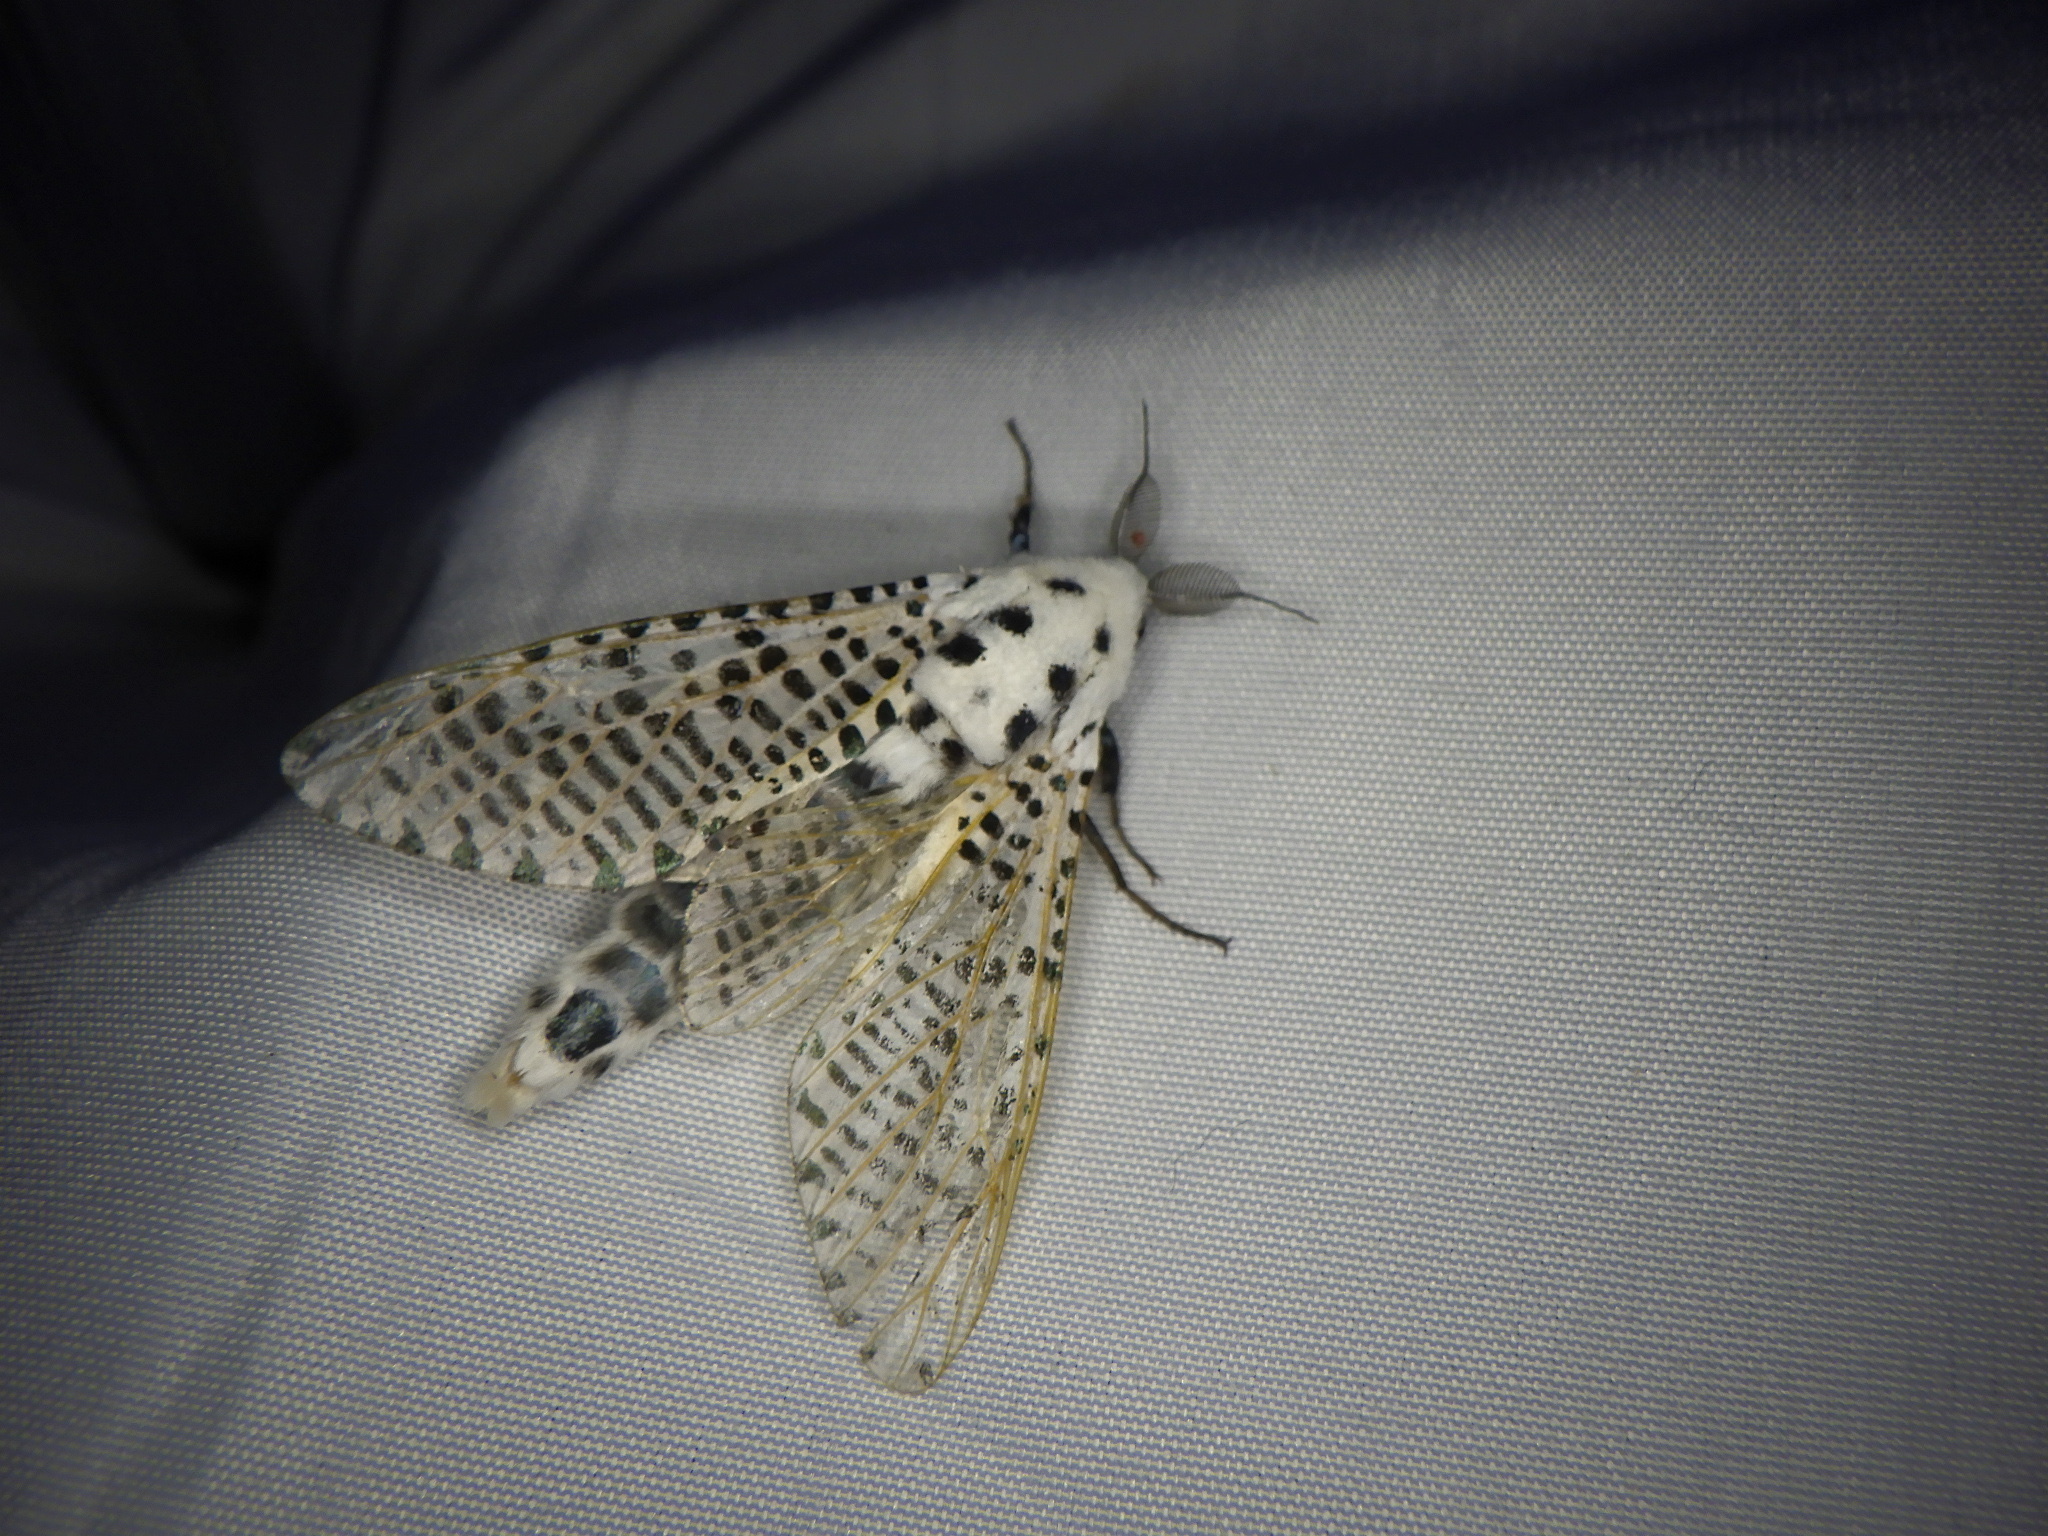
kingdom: Animalia
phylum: Arthropoda
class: Insecta
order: Lepidoptera
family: Cossidae
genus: Zeuzera
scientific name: Zeuzera multistrigata
